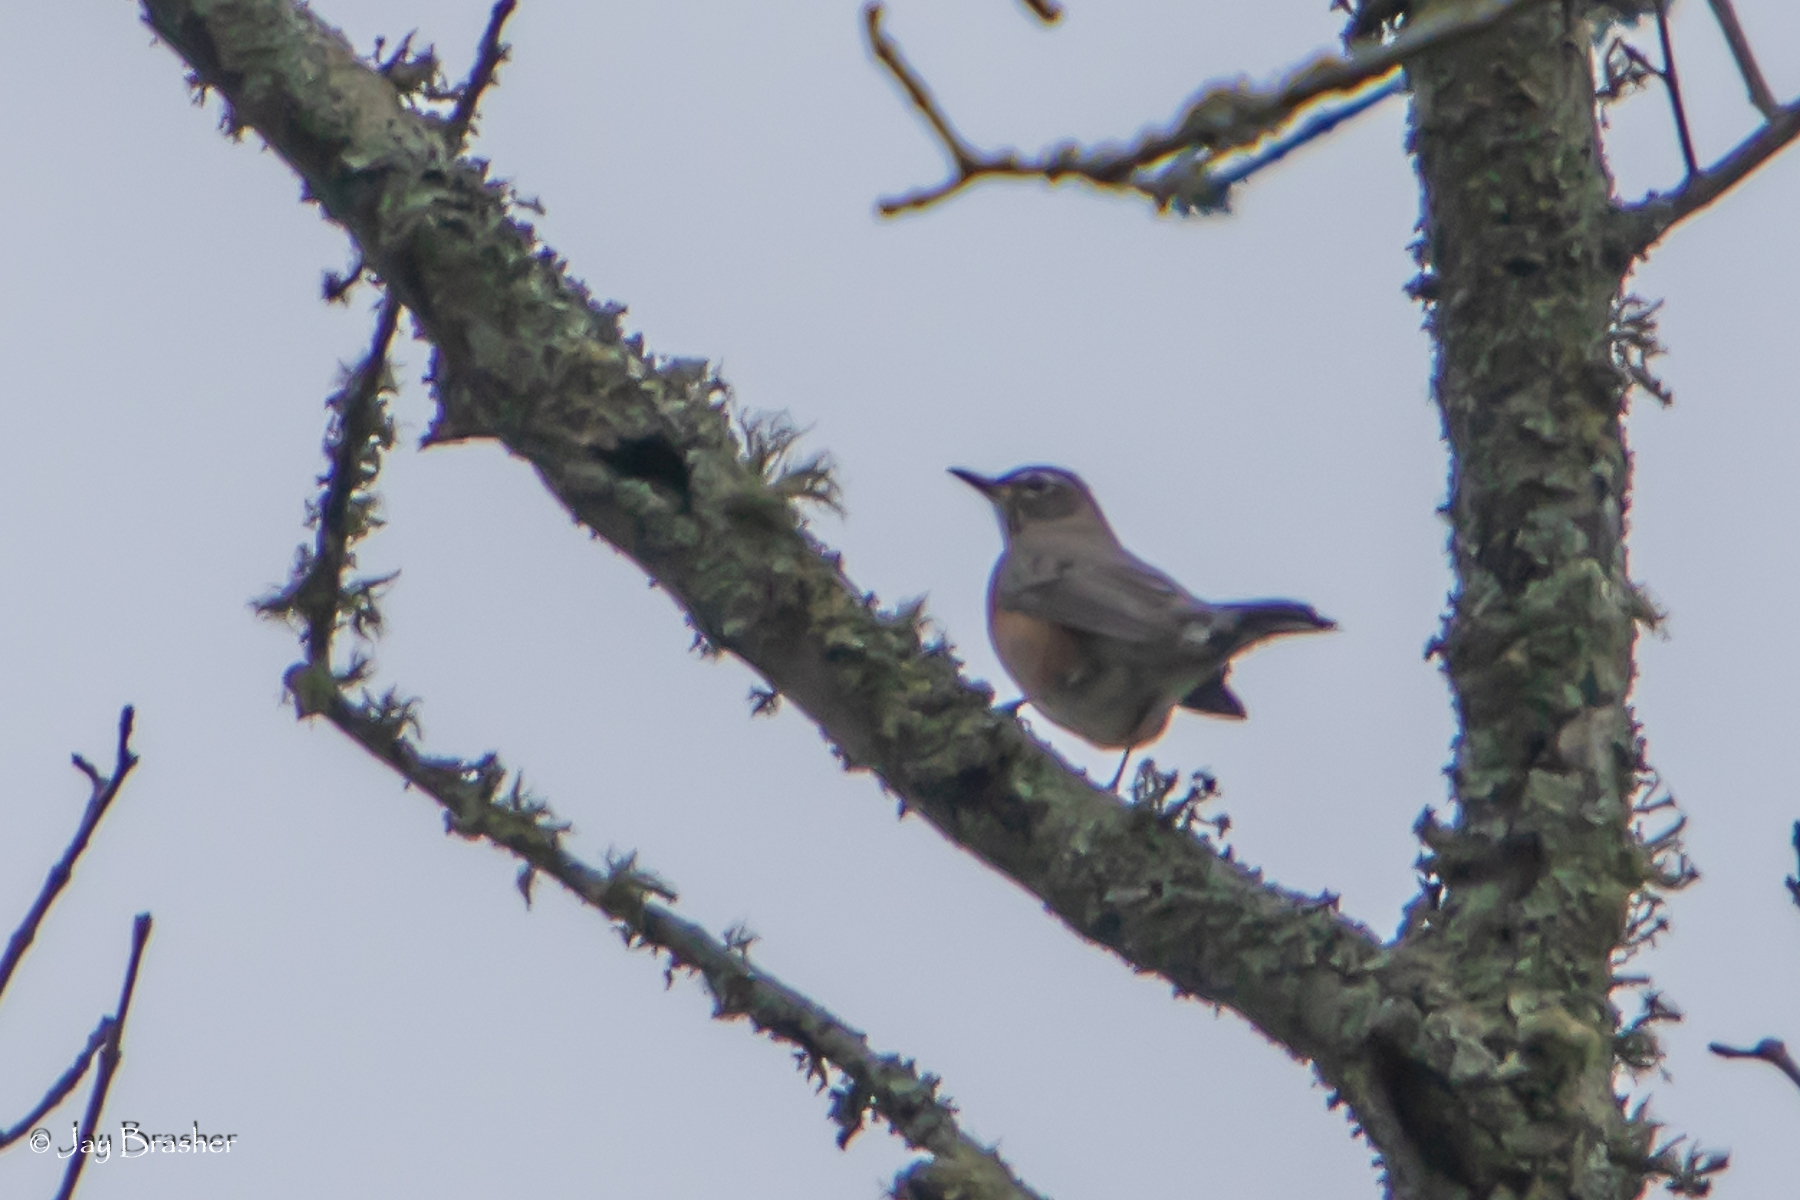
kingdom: Animalia
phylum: Chordata
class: Aves
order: Passeriformes
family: Turdidae
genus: Turdus
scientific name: Turdus migratorius
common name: American robin
